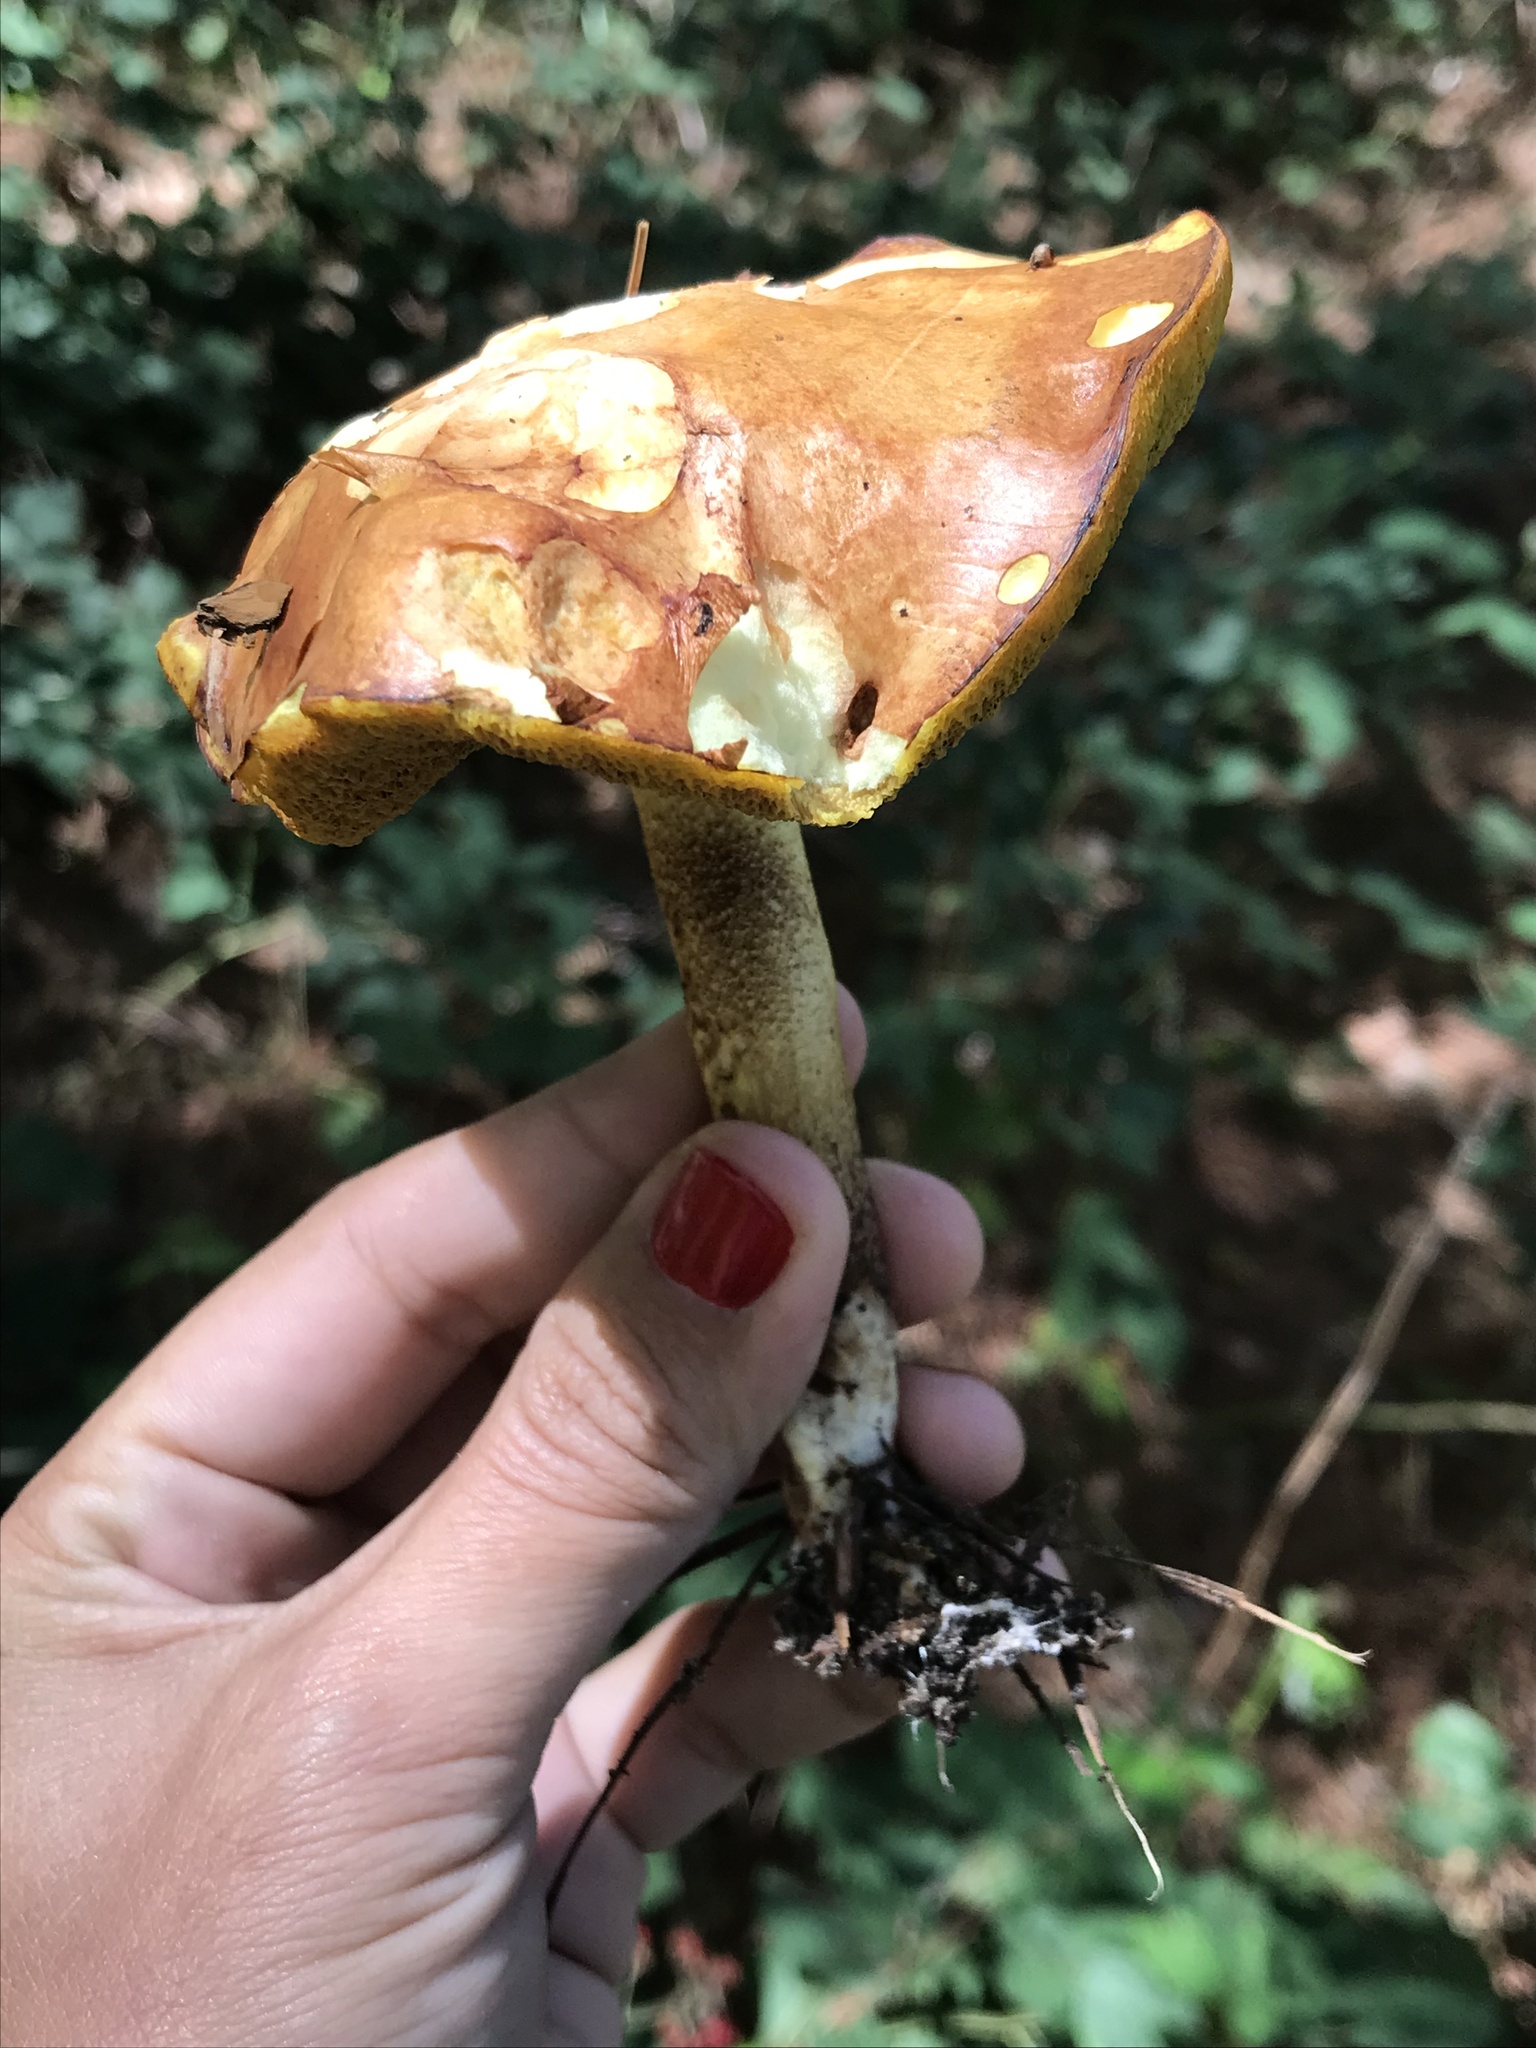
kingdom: Fungi
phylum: Basidiomycota
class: Agaricomycetes
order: Boletales
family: Suillaceae
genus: Suillus
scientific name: Suillus granulatus
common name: Weeping bolete
